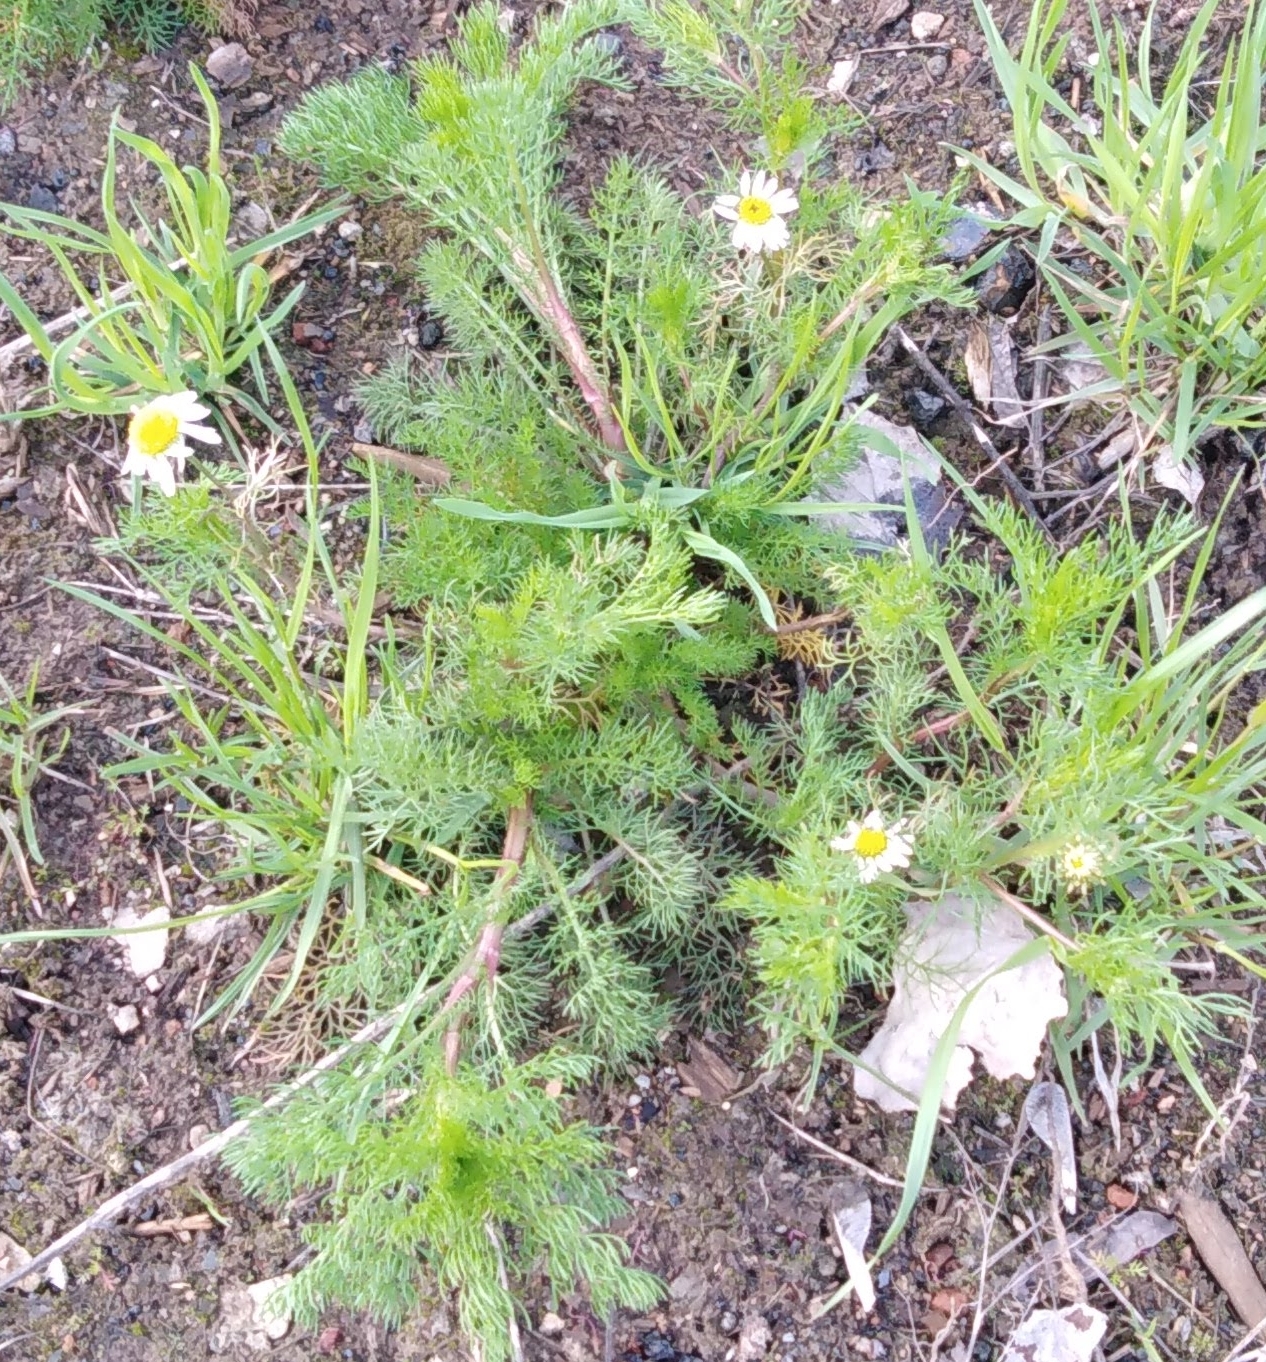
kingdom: Plantae
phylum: Tracheophyta
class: Magnoliopsida
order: Asterales
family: Asteraceae
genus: Tripleurospermum
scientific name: Tripleurospermum inodorum
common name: Scentless mayweed
